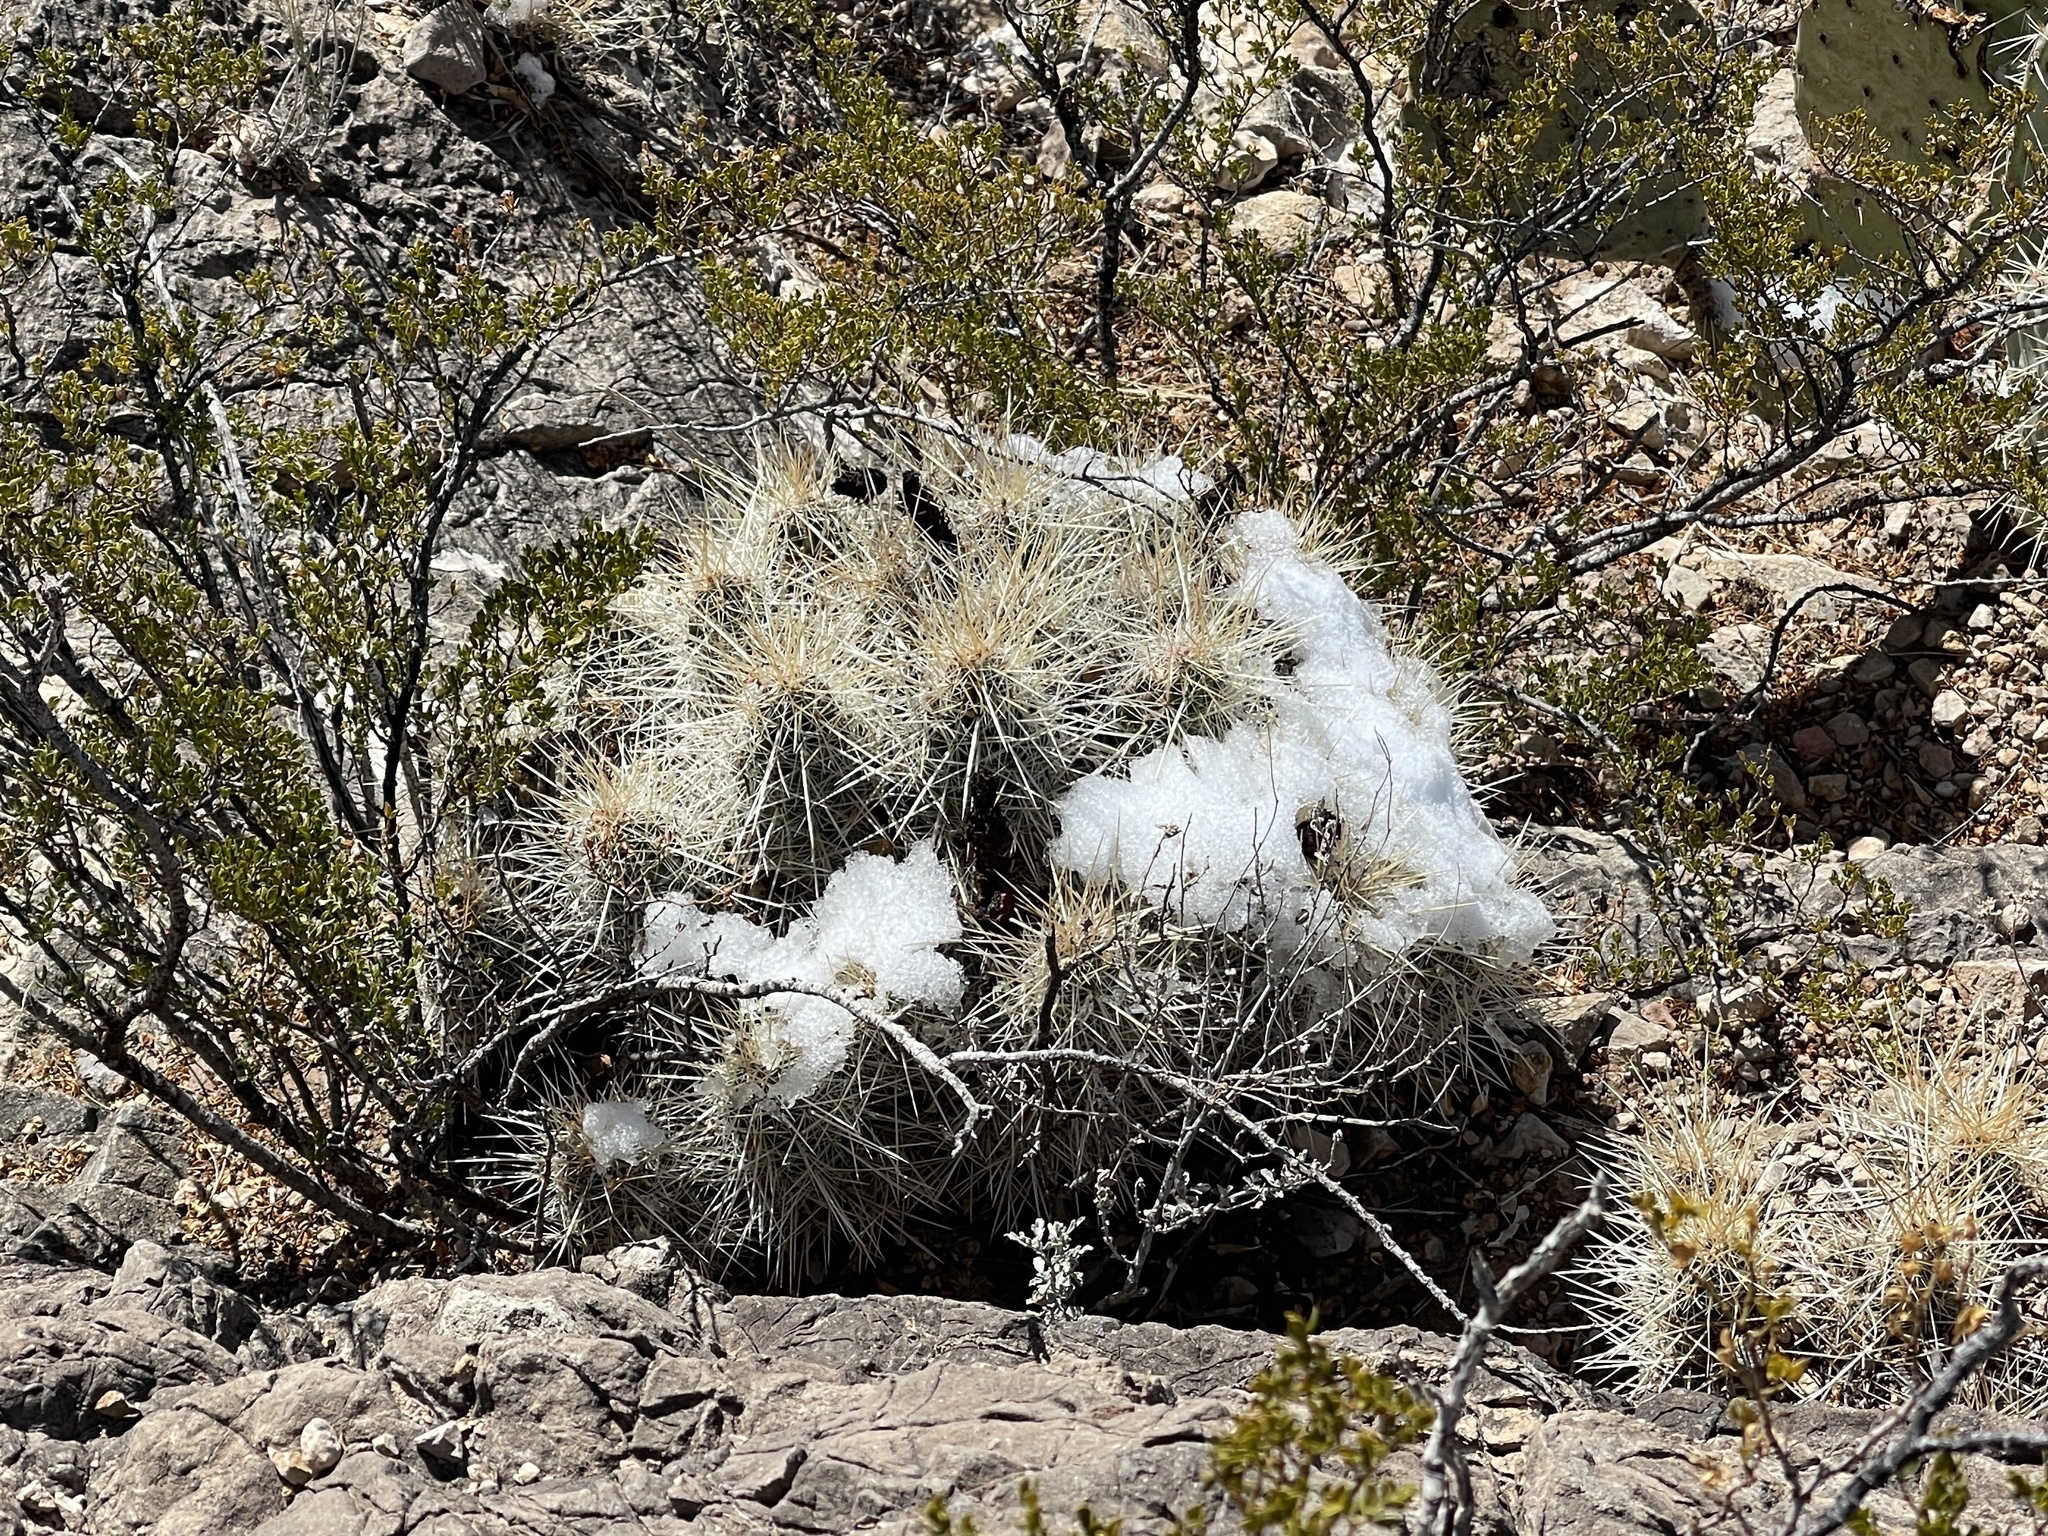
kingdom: Plantae
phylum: Tracheophyta
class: Magnoliopsida
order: Caryophyllales
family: Cactaceae
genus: Echinocereus
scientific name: Echinocereus stramineus
